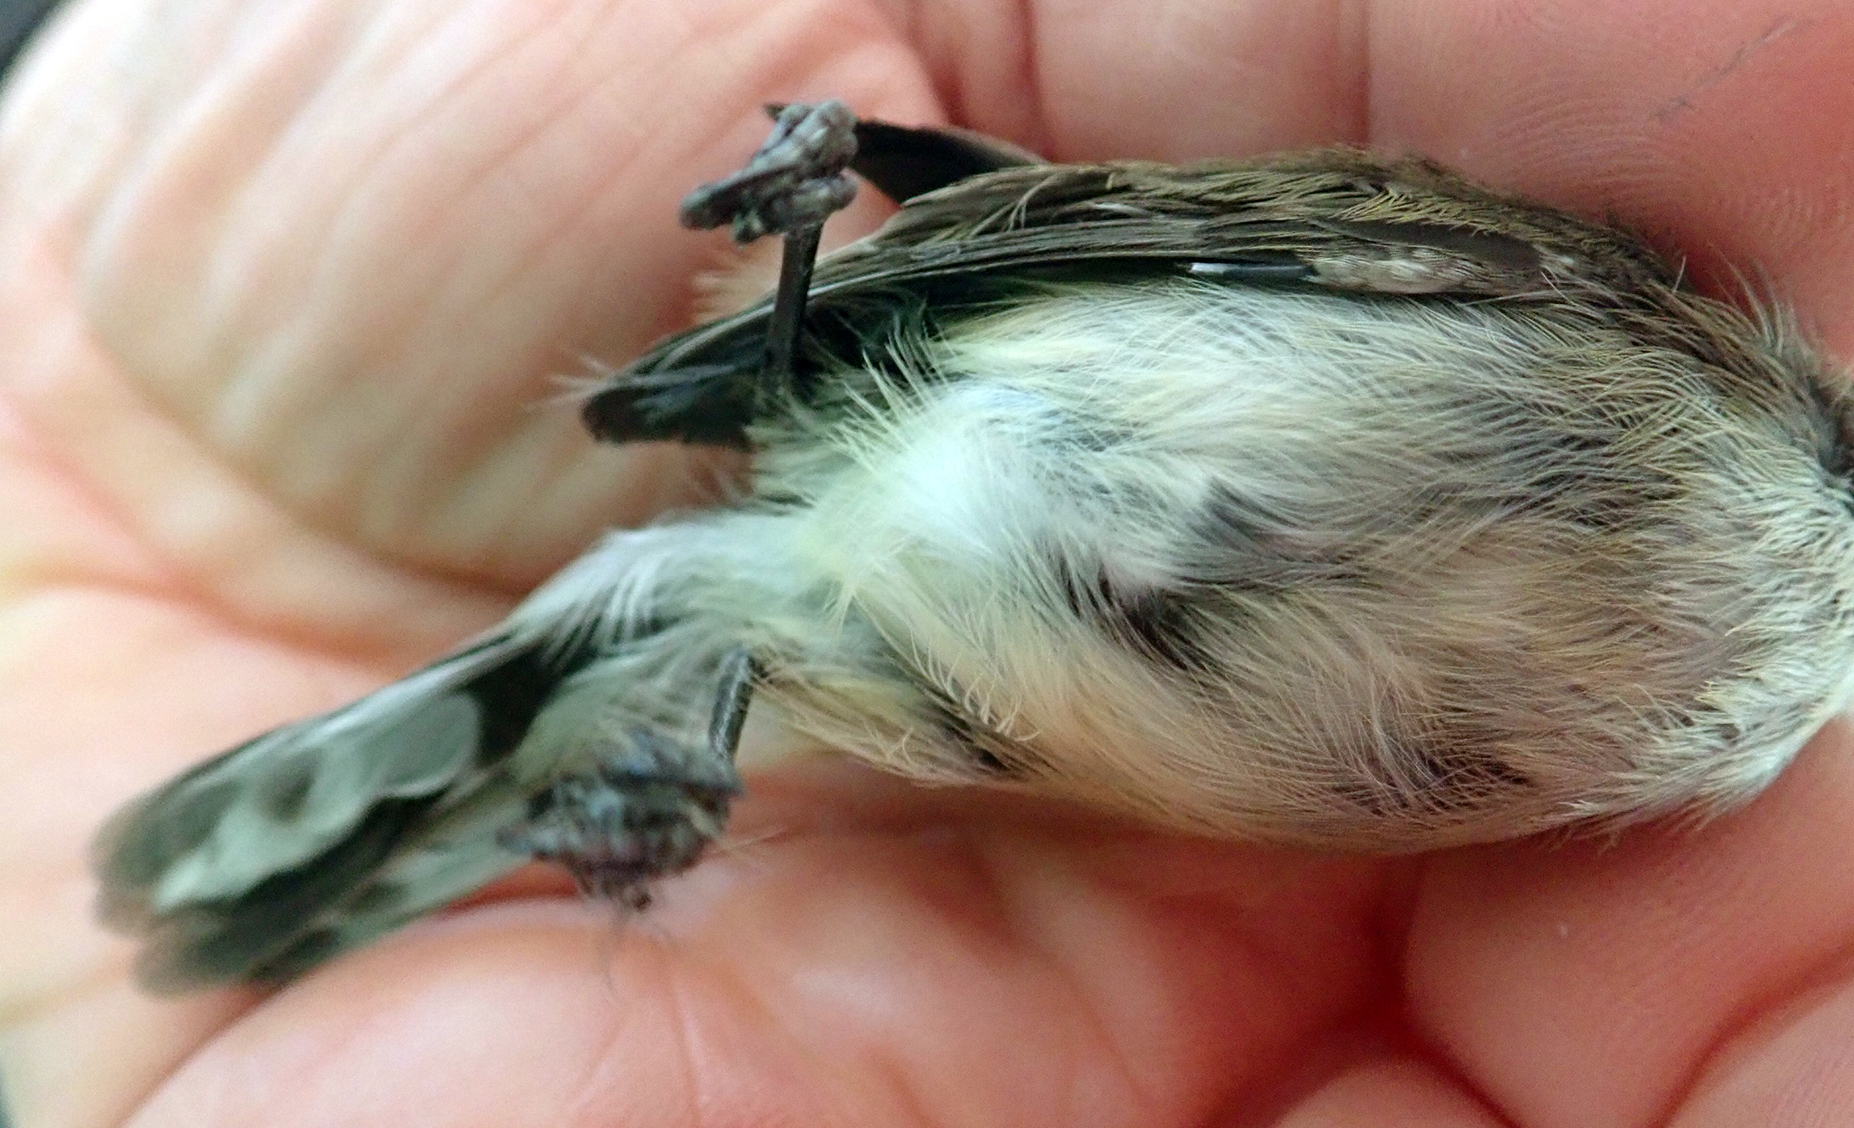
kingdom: Animalia
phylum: Chordata
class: Aves
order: Passeriformes
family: Acanthizidae
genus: Gerygone
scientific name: Gerygone igata
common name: Grey gerygone
